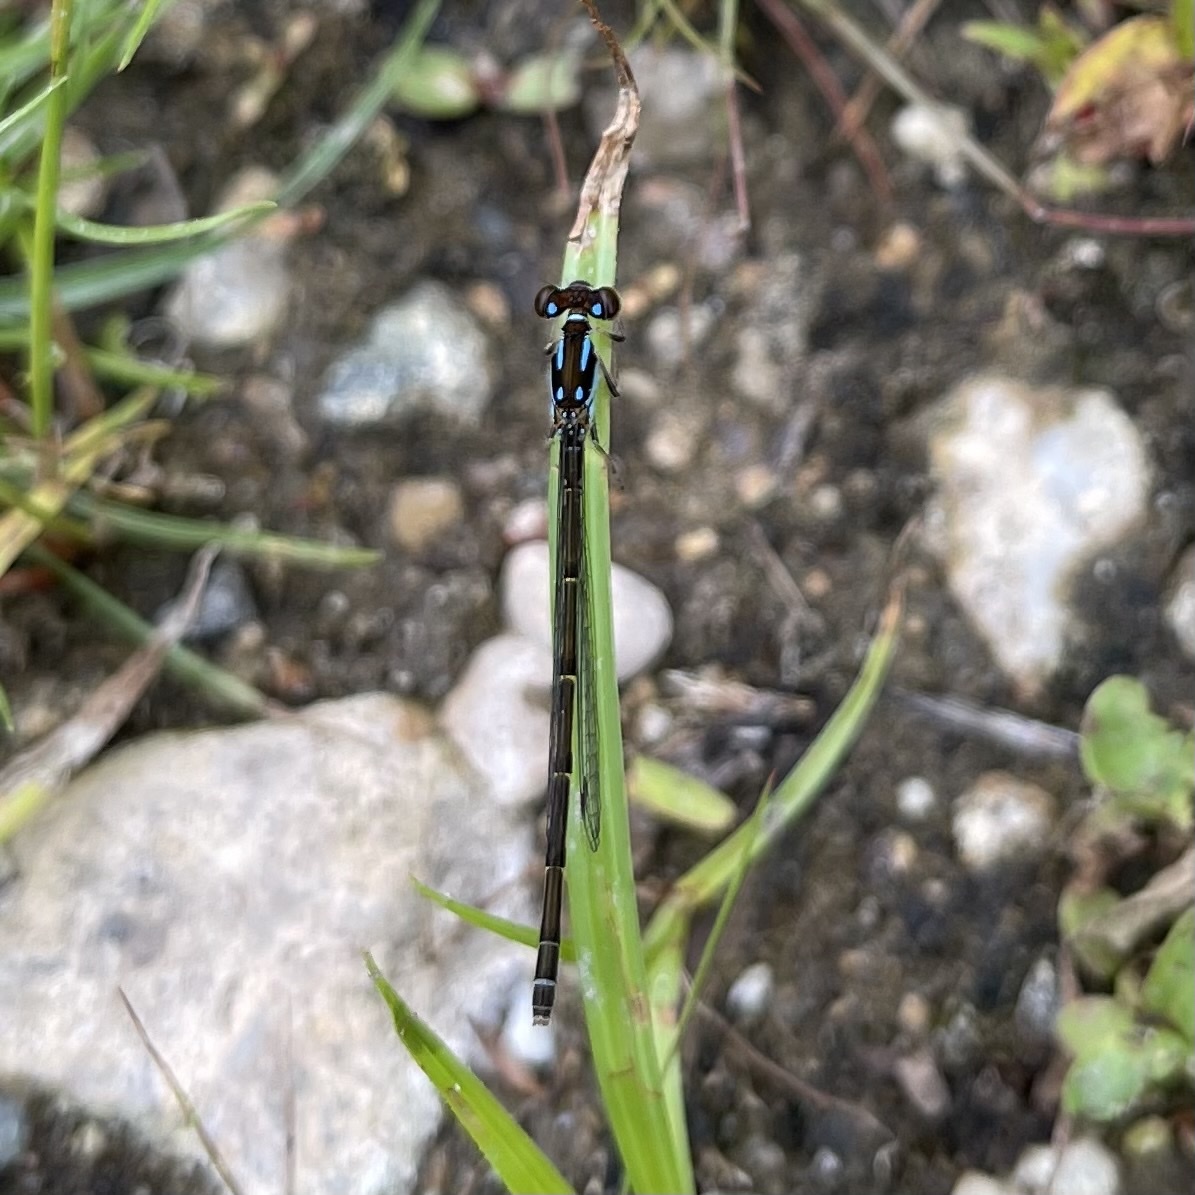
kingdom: Animalia
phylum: Arthropoda
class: Insecta
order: Odonata
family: Coenagrionidae
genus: Ischnura
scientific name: Ischnura posita
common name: Fragile forktail
